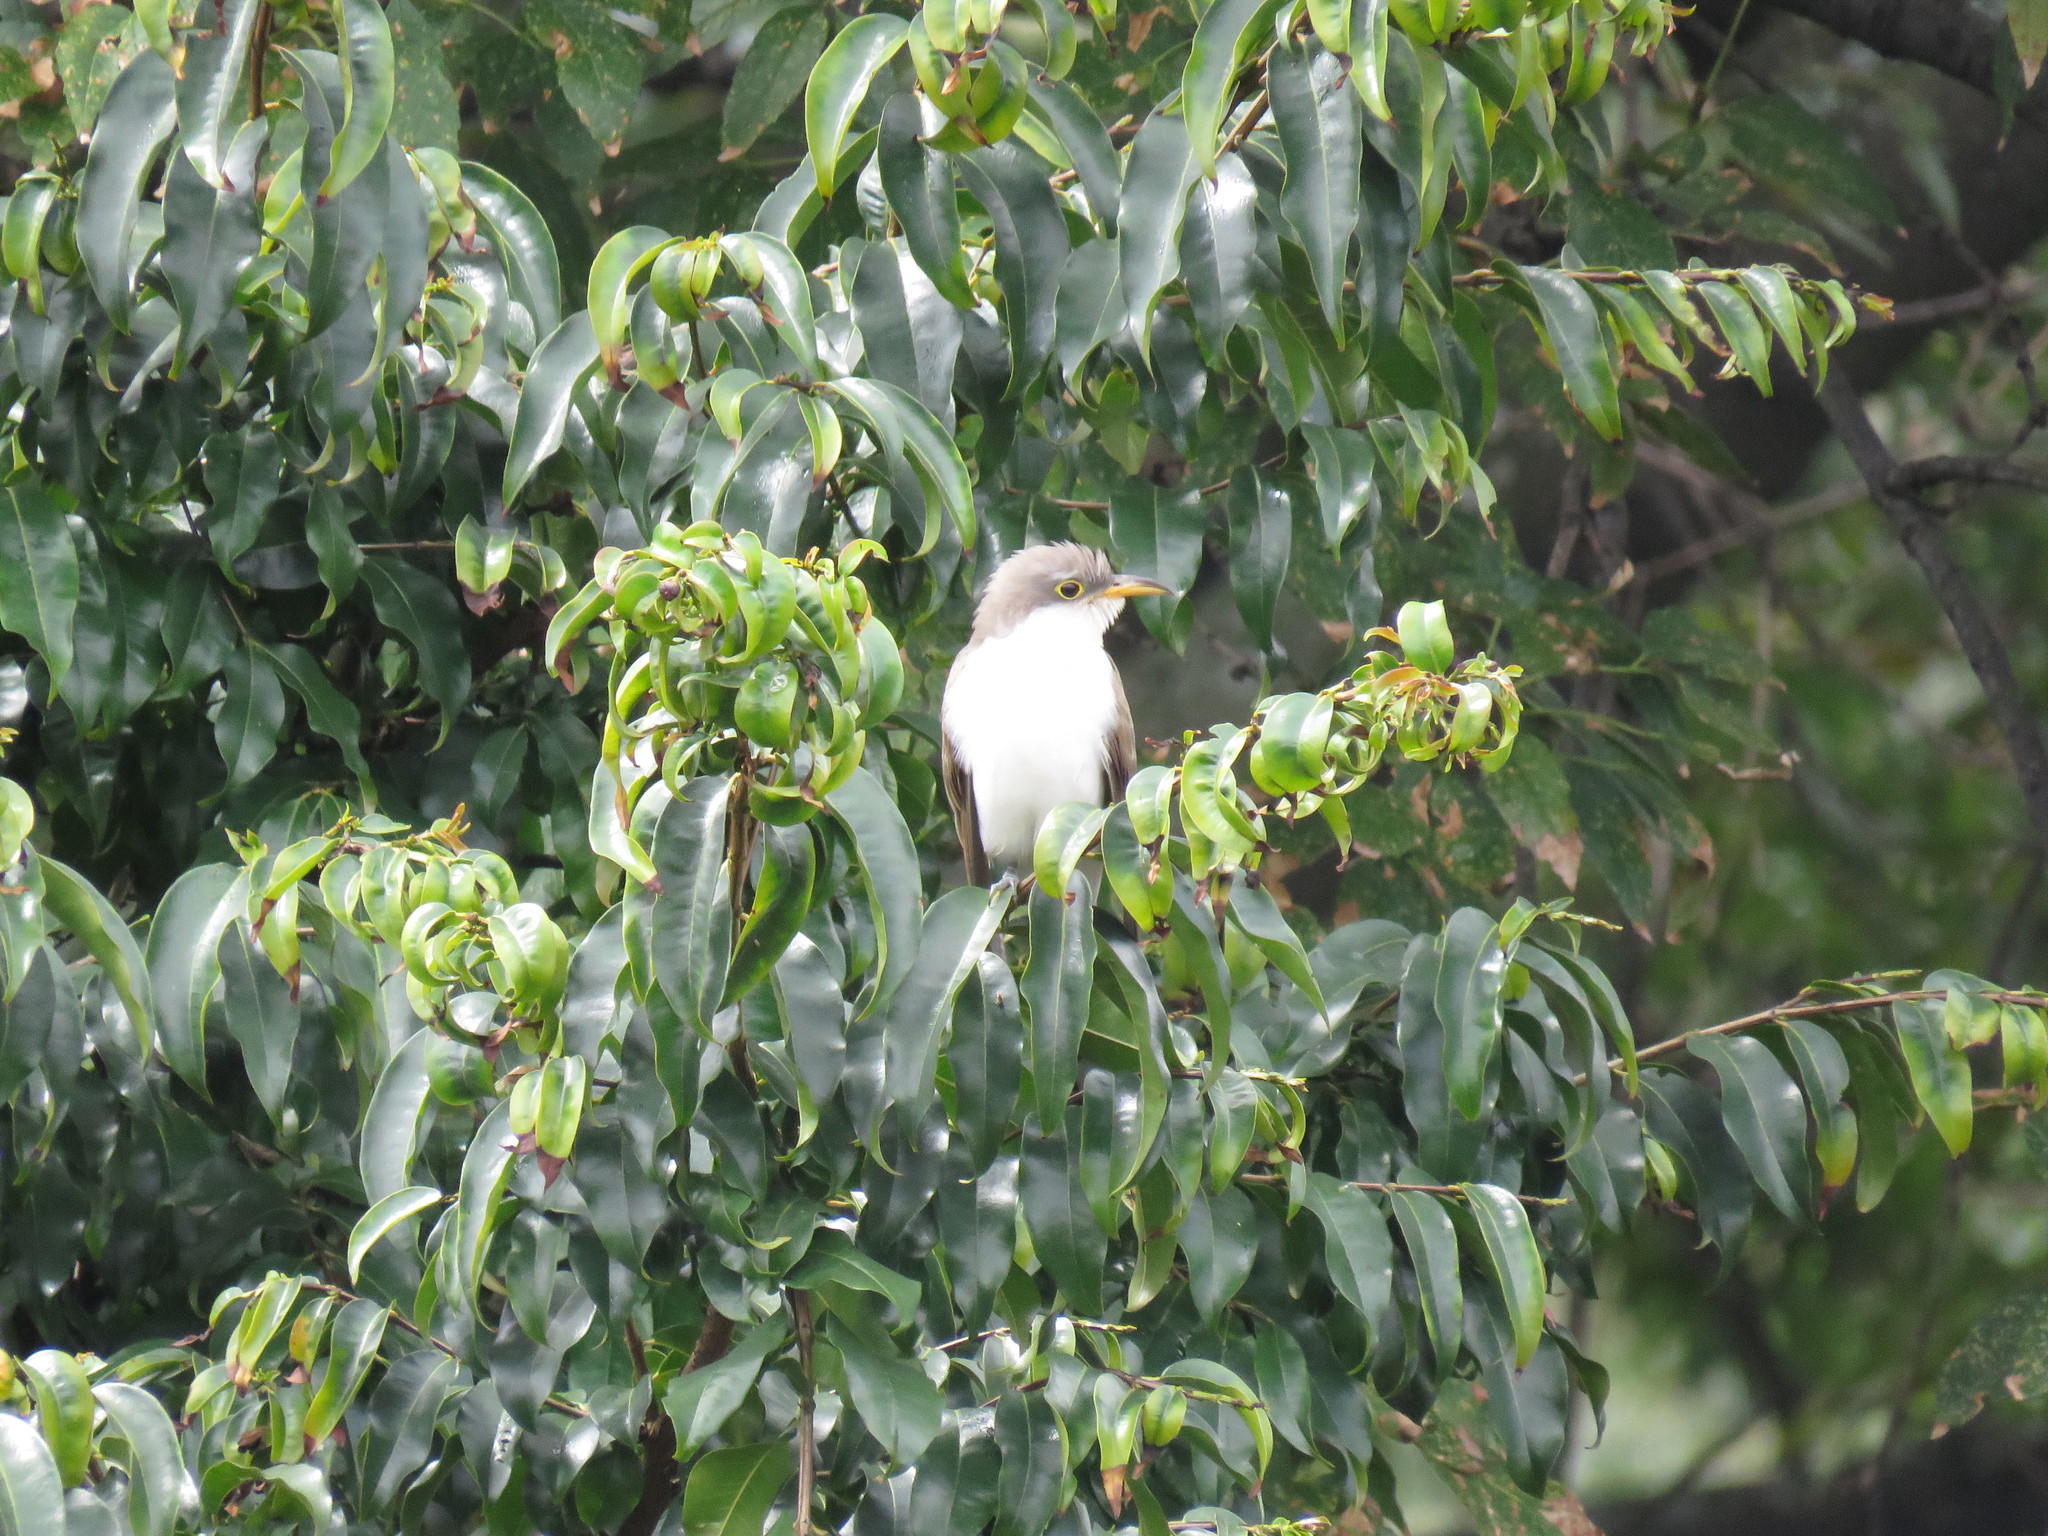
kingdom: Animalia
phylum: Chordata
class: Aves
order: Cuculiformes
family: Cuculidae
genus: Coccyzus
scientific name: Coccyzus americanus
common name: Yellow-billed cuckoo
